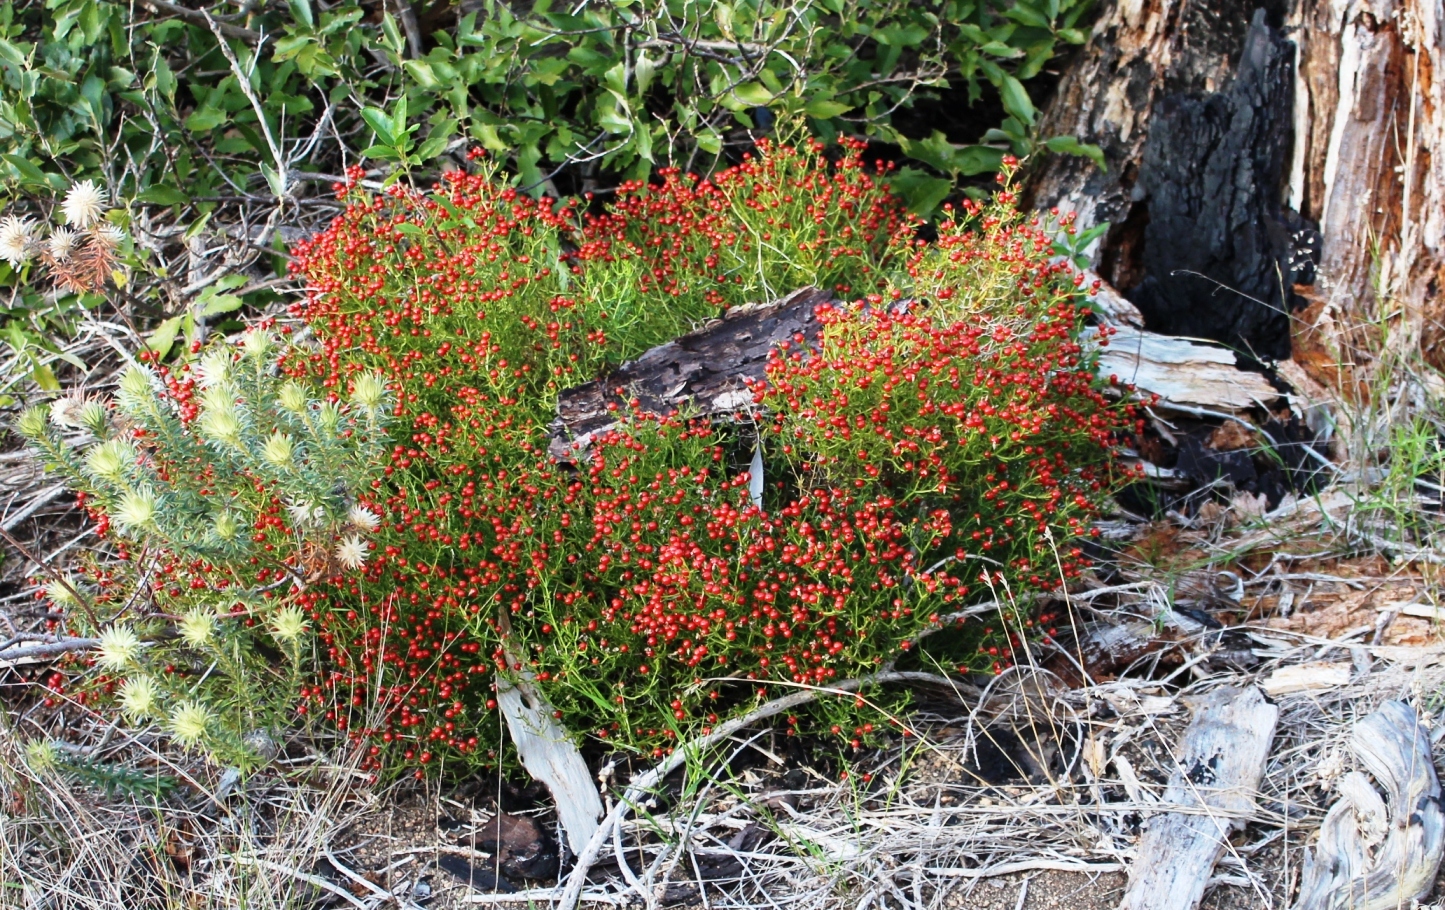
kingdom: Plantae
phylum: Tracheophyta
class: Magnoliopsida
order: Gentianales
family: Gentianaceae
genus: Chironia
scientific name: Chironia baccifera
